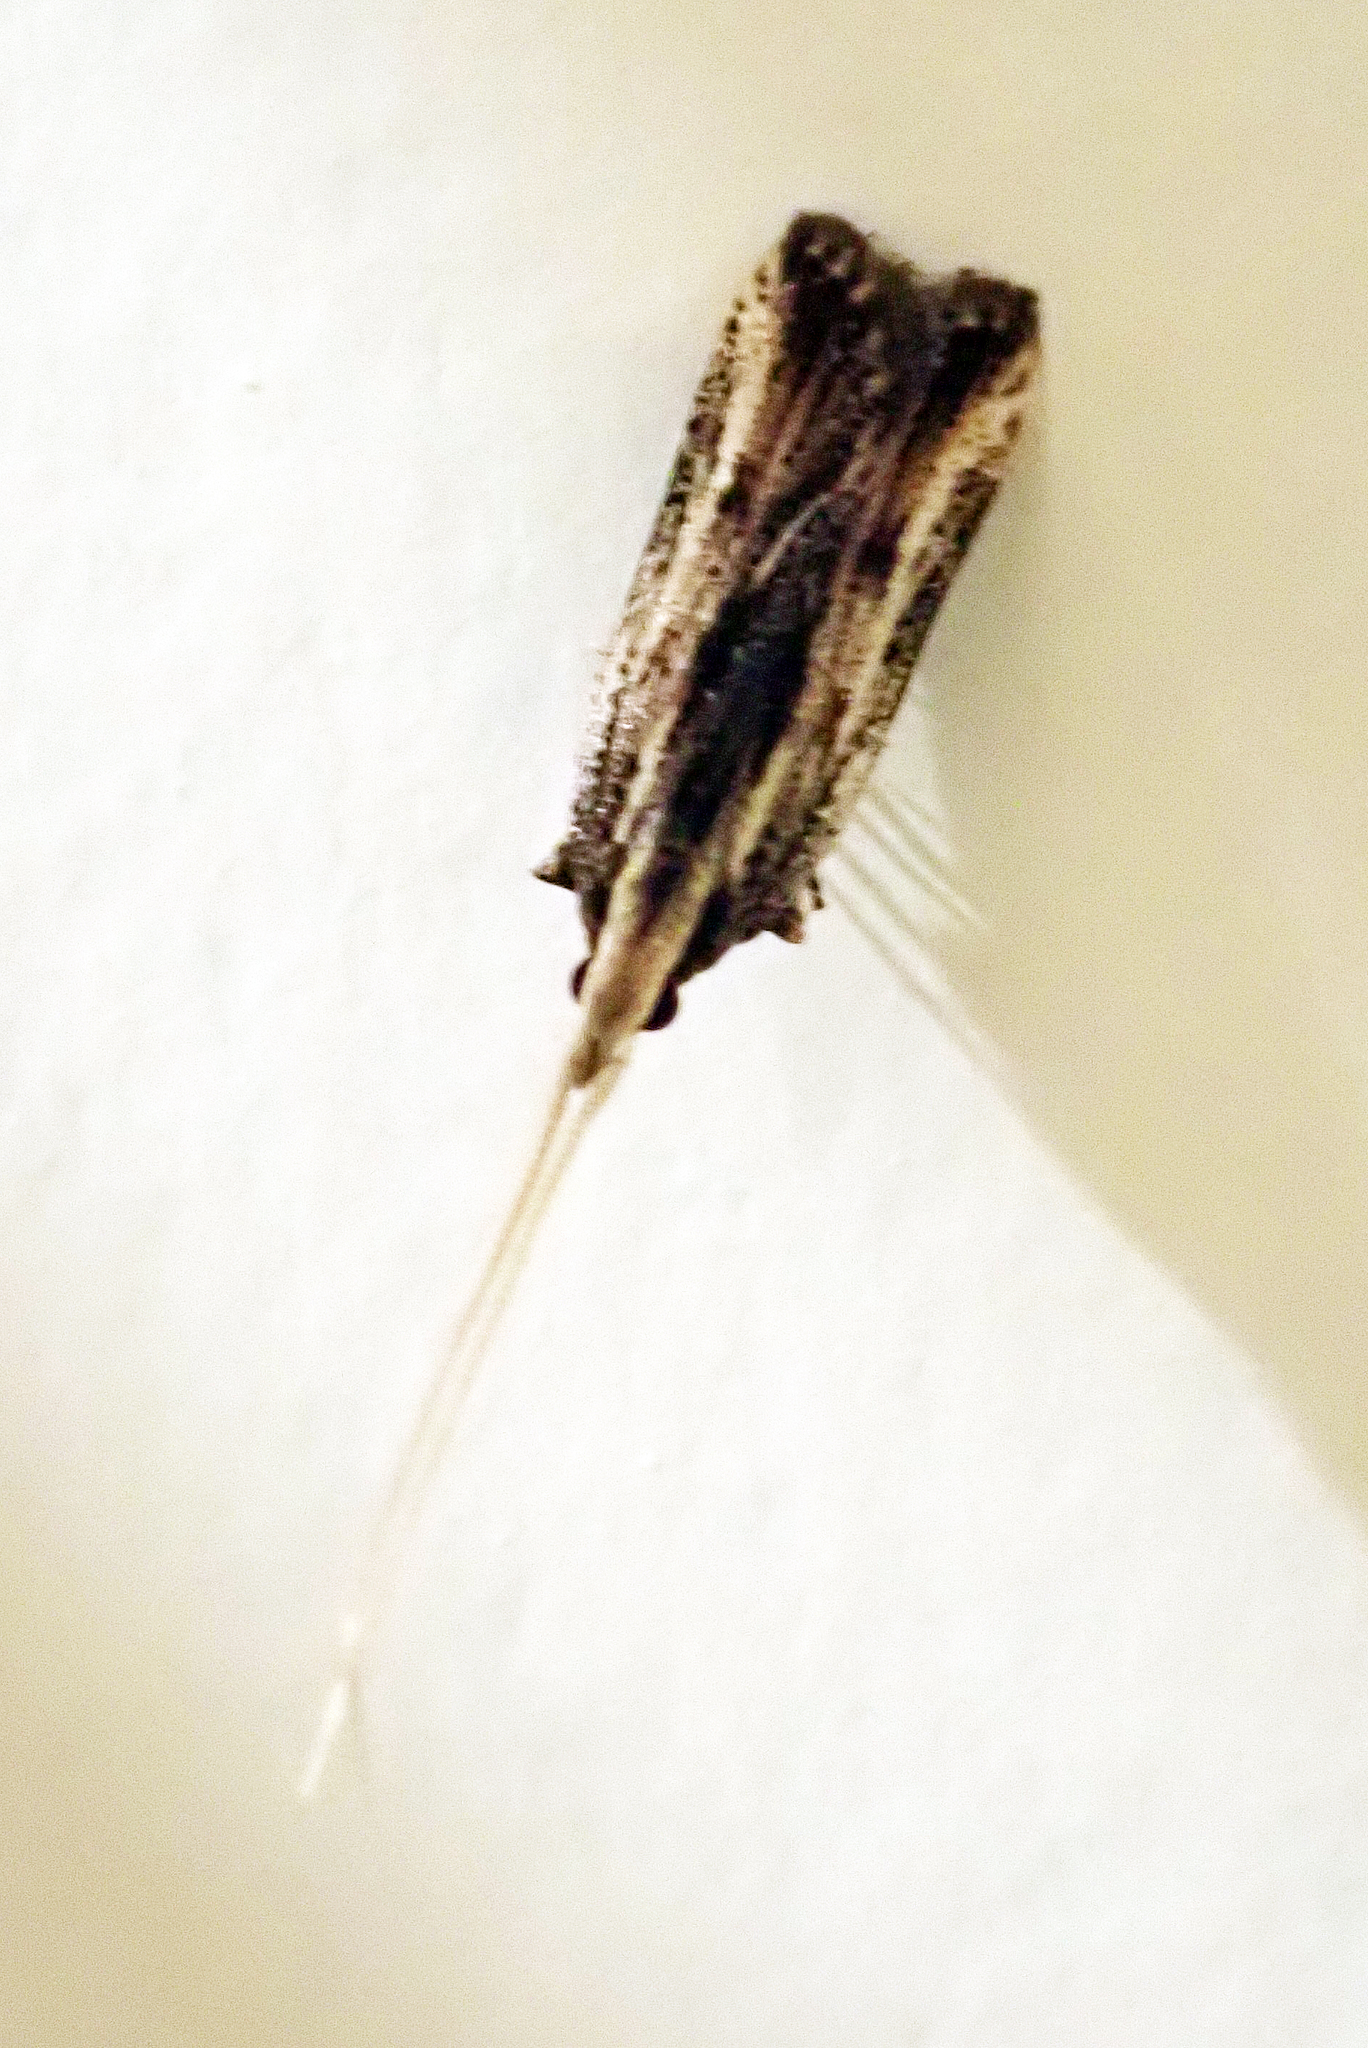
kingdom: Animalia
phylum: Arthropoda
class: Insecta
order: Lepidoptera
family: Lecithoceridae
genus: Sarisophora
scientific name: Sarisophora leucoscia
